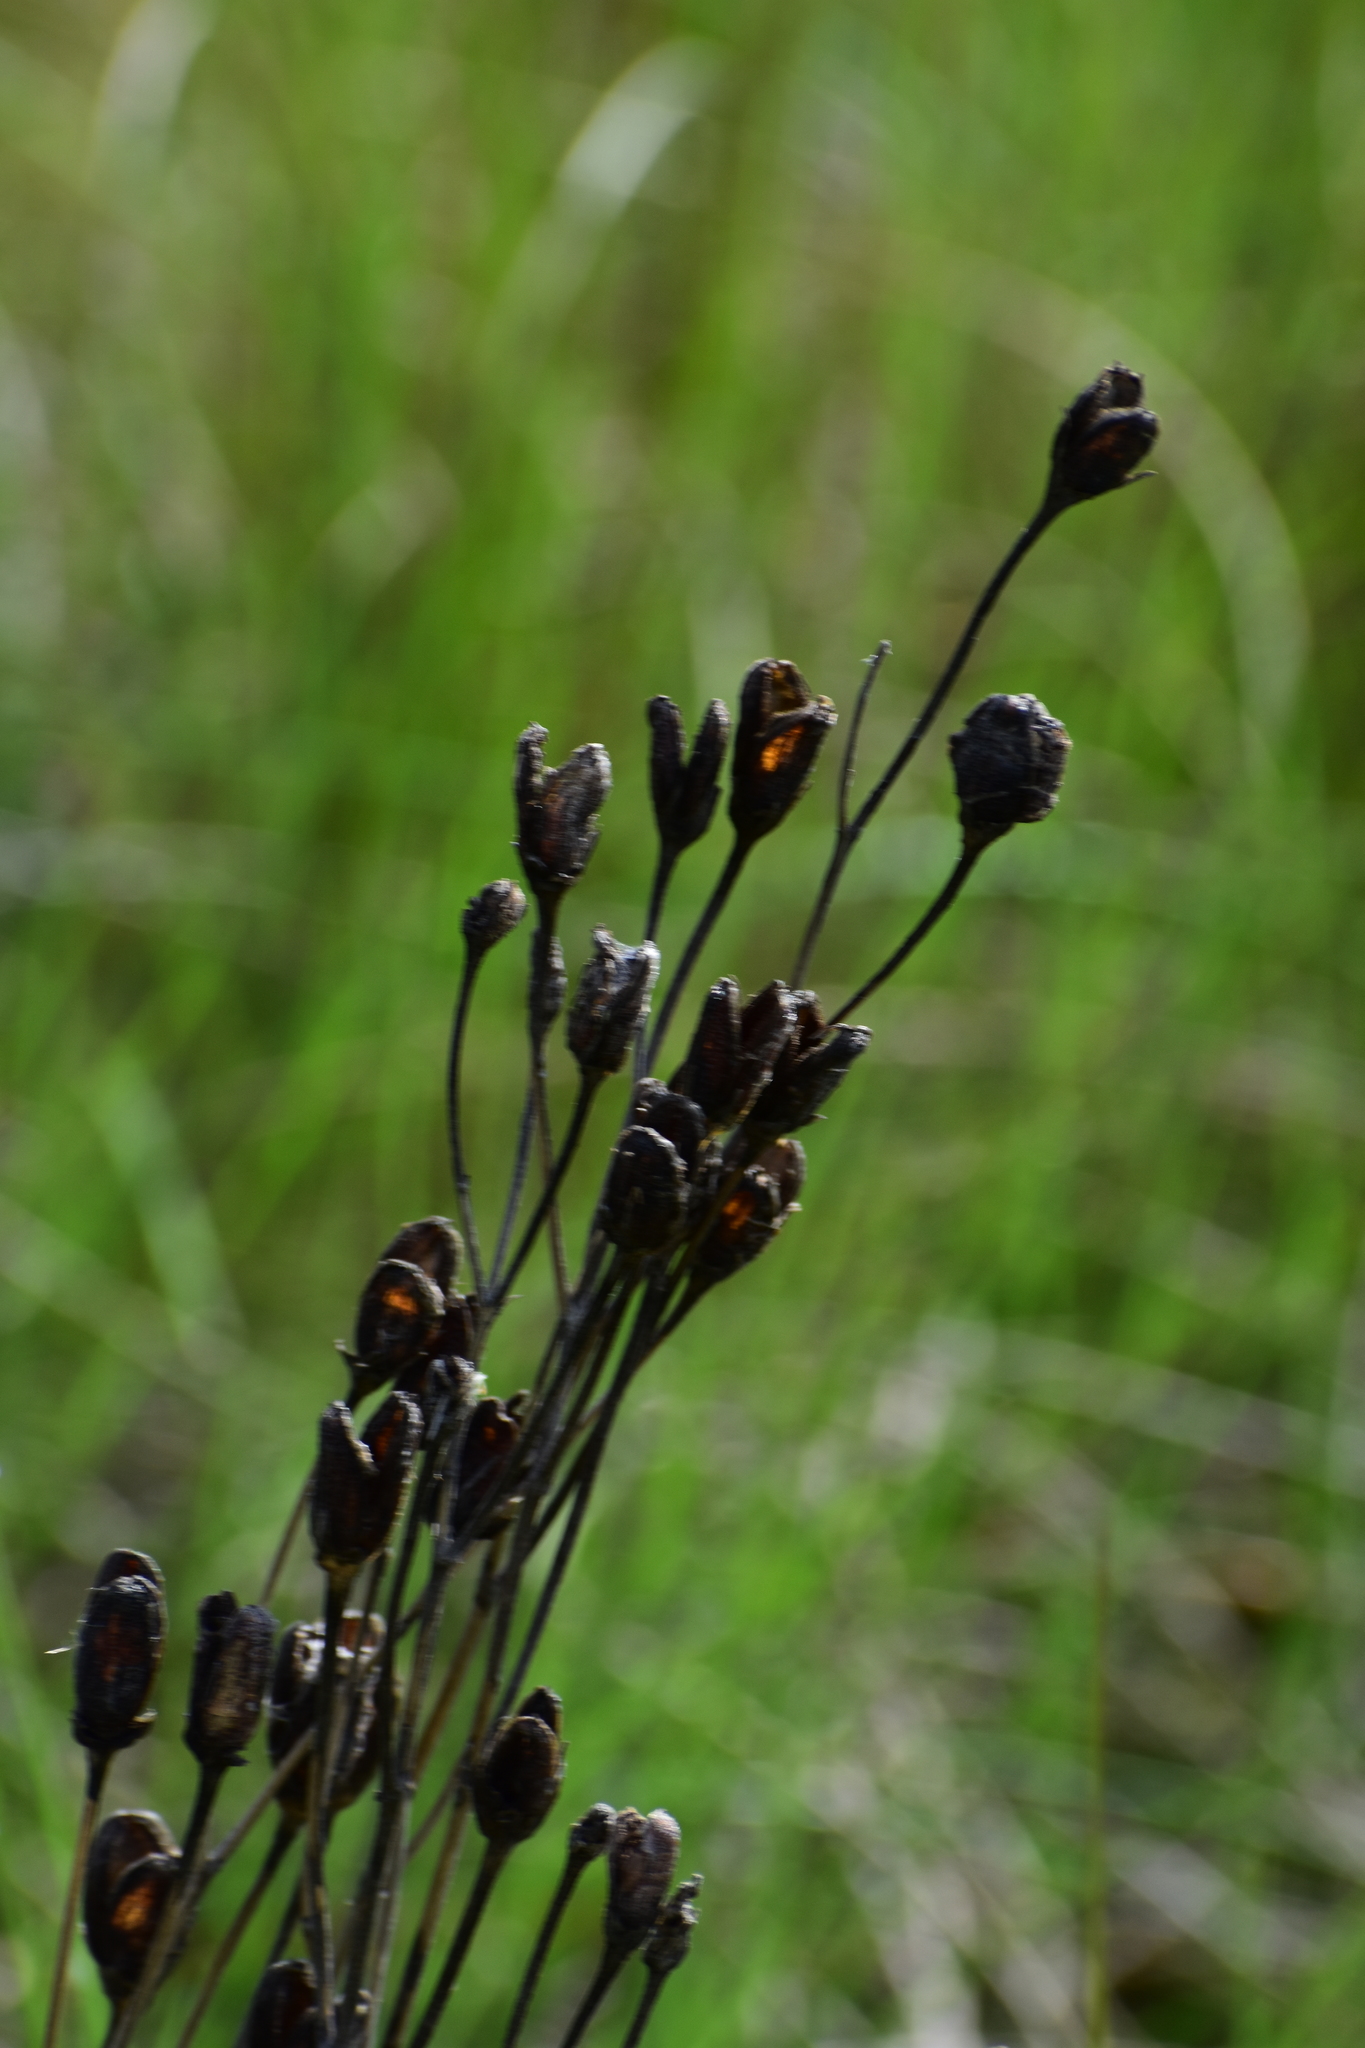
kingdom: Plantae
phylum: Tracheophyta
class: Magnoliopsida
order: Gentianales
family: Gentianaceae
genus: Eustoma
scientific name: Eustoma exaltatum
